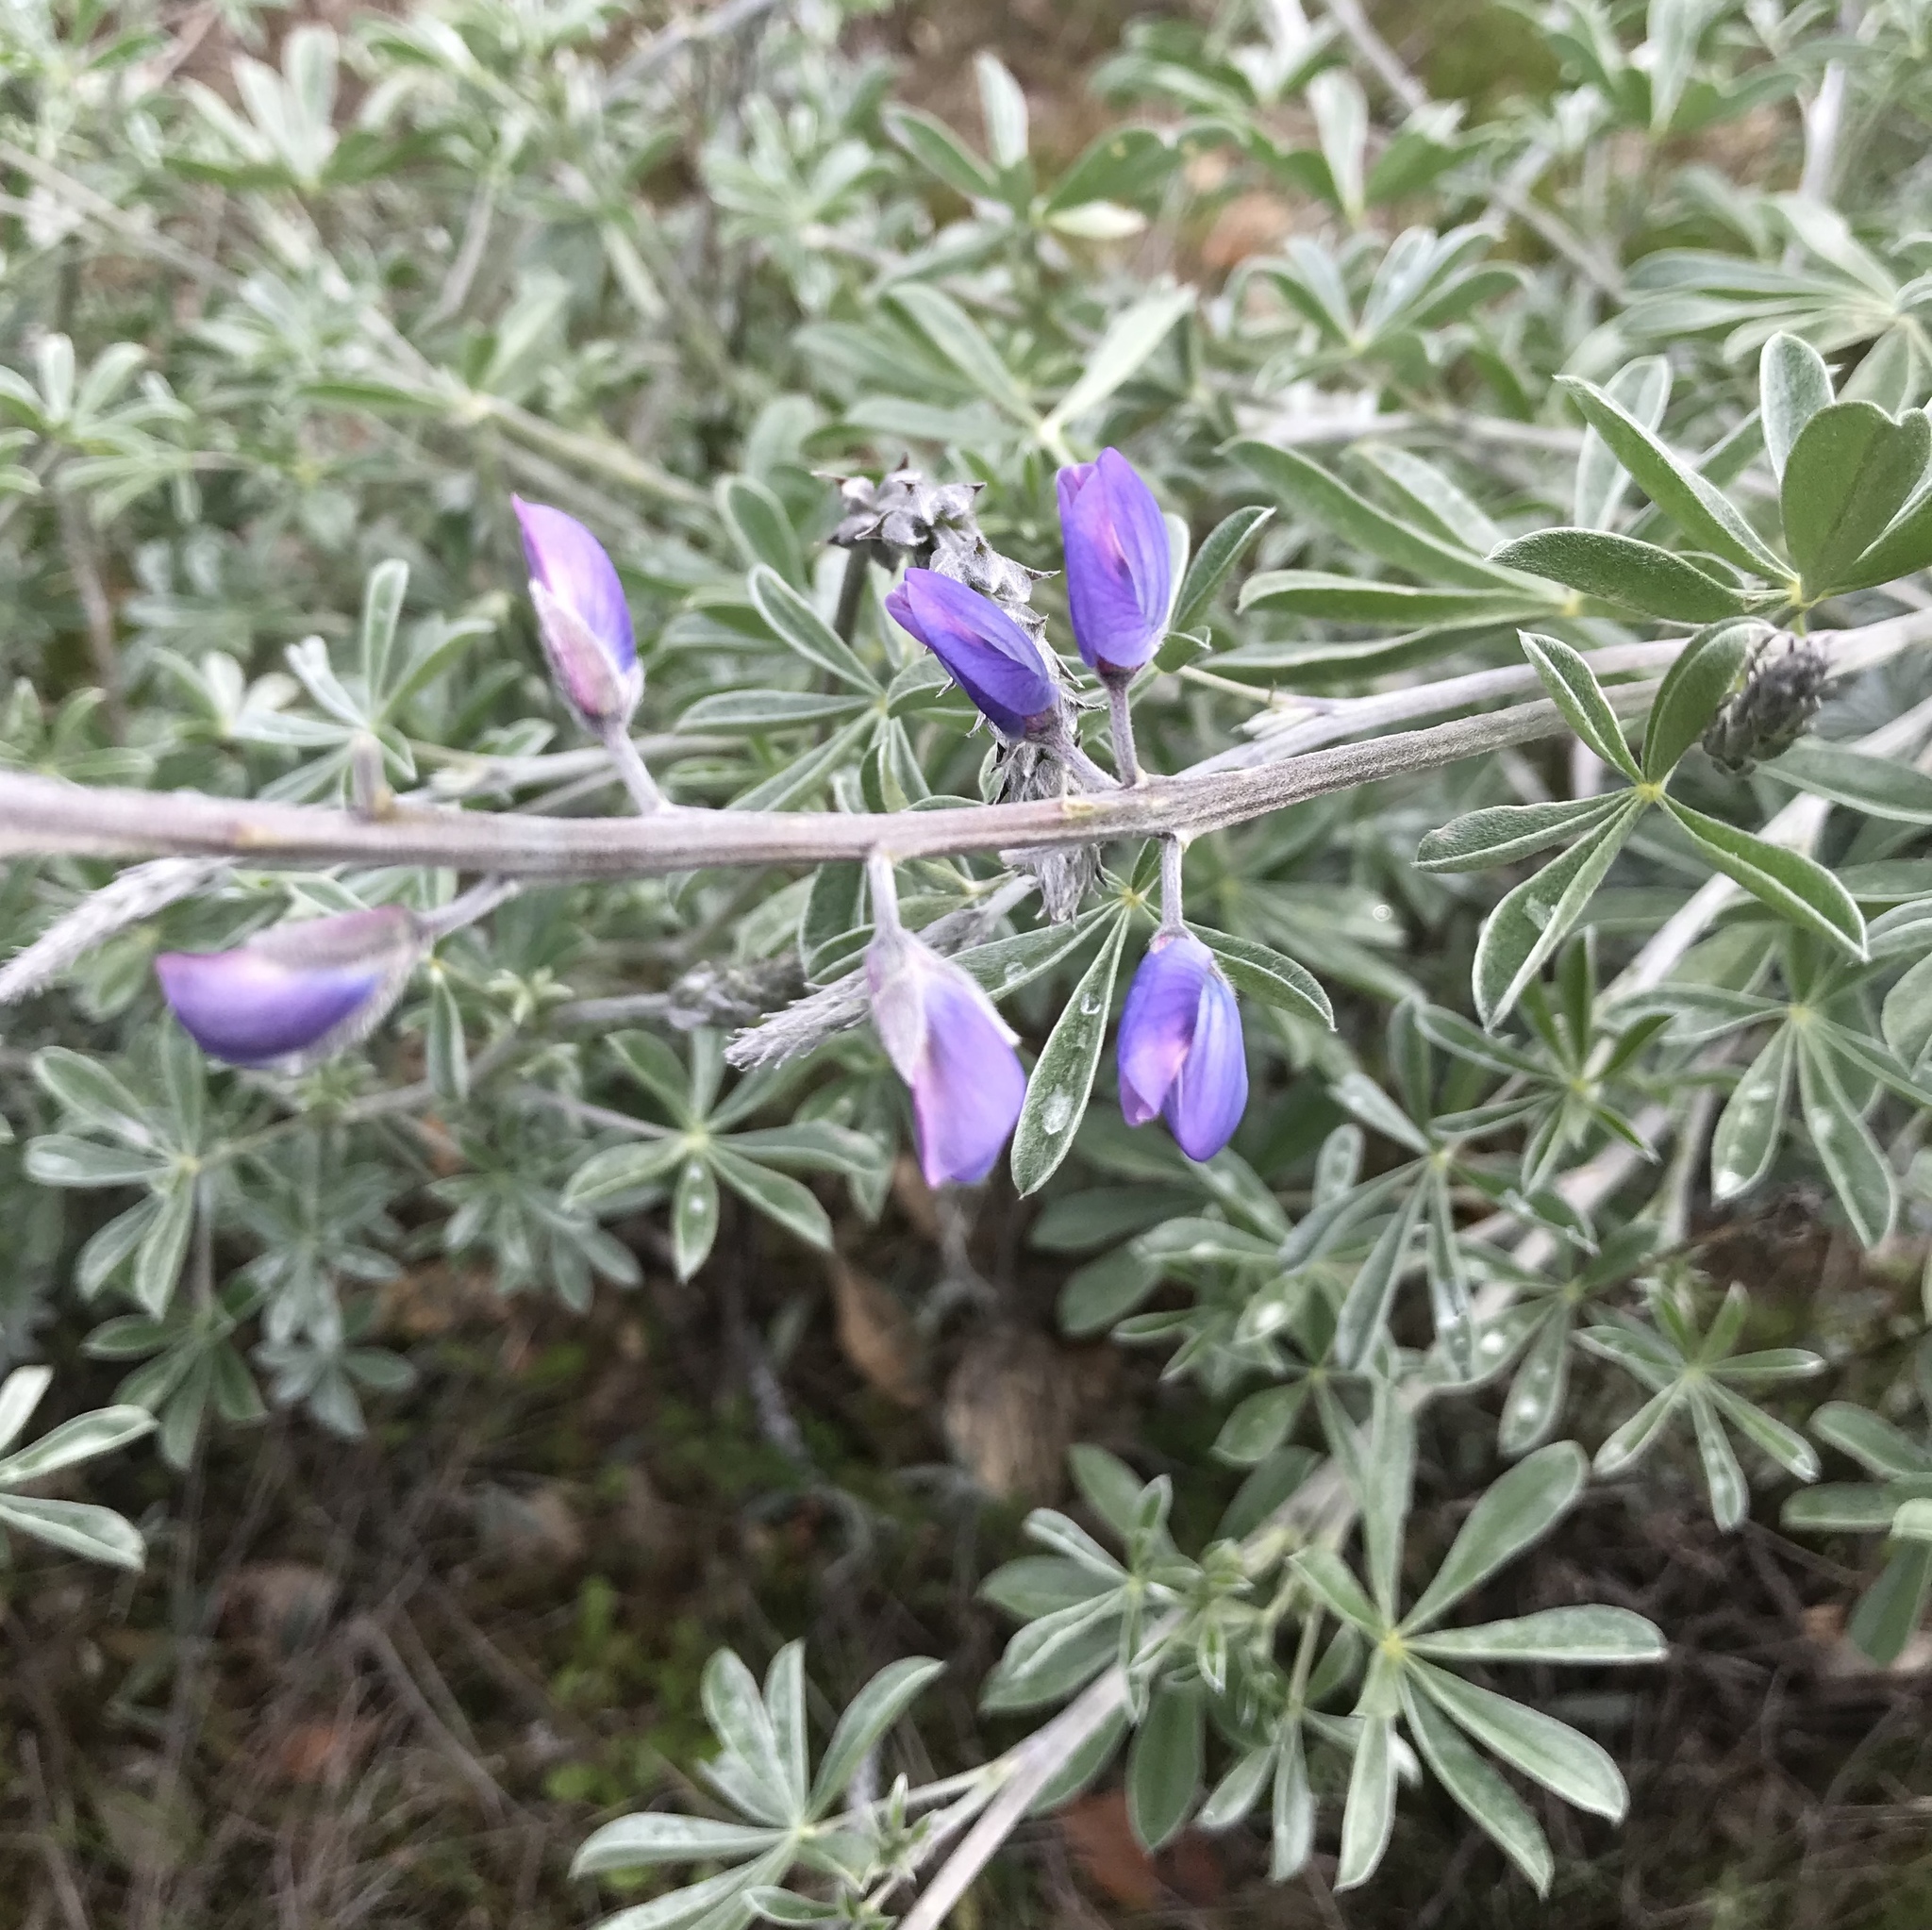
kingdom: Plantae
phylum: Tracheophyta
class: Magnoliopsida
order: Fabales
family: Fabaceae
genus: Lupinus
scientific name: Lupinus albifrons
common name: Foothill lupine
